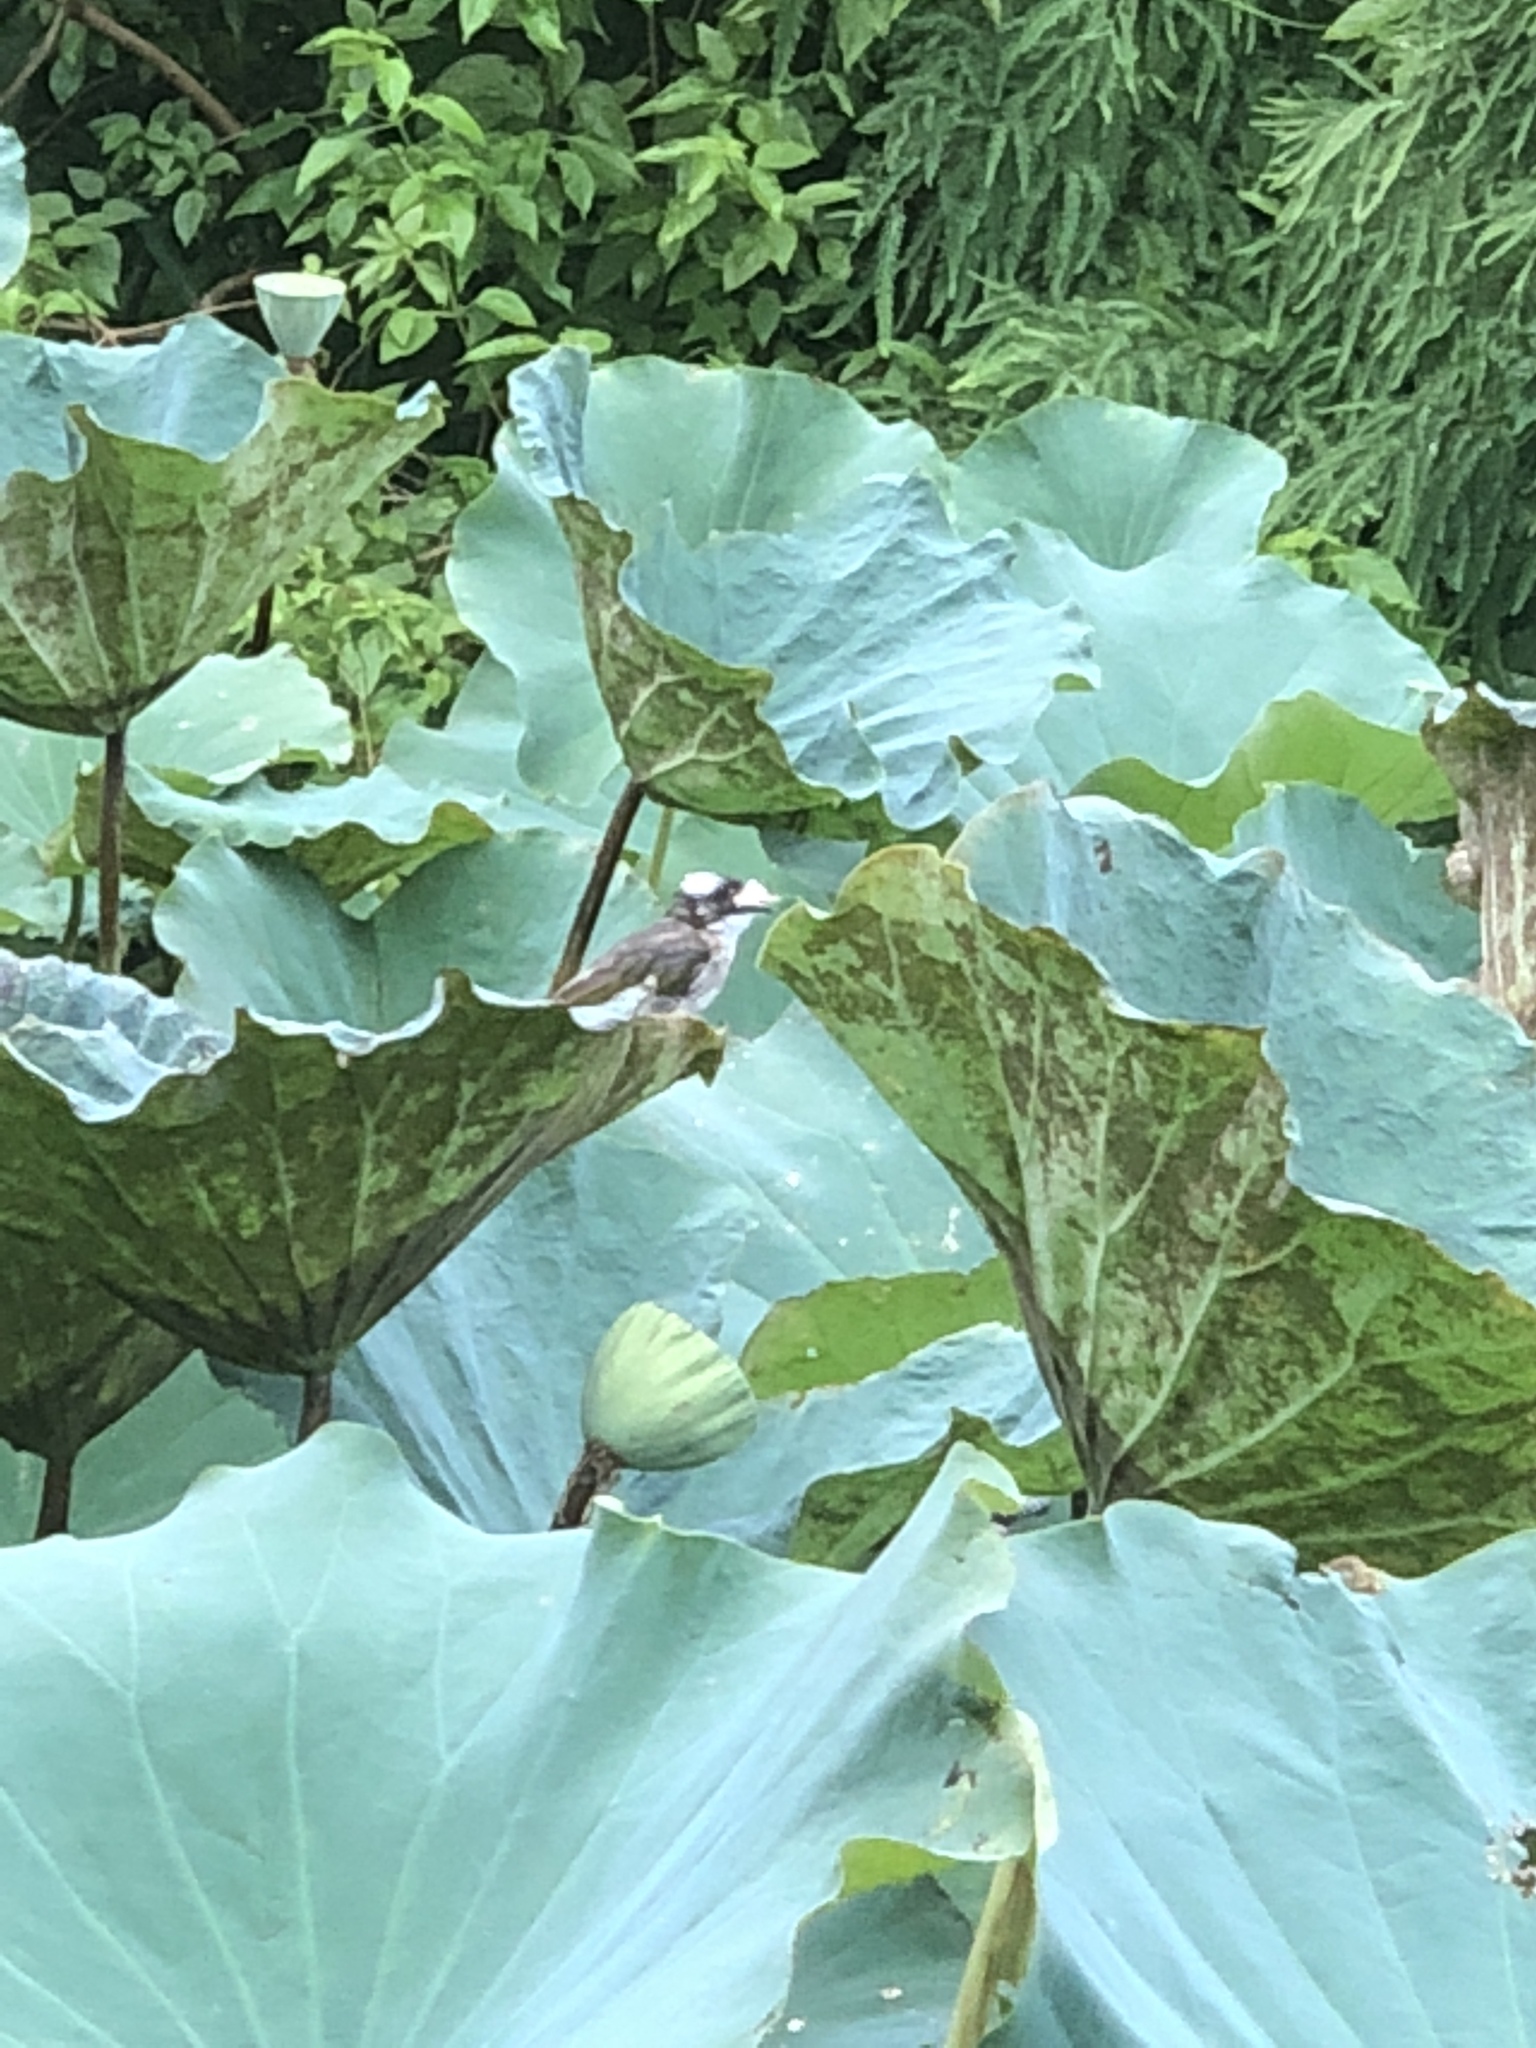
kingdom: Animalia
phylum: Chordata
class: Aves
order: Passeriformes
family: Pycnonotidae
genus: Pycnonotus
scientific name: Pycnonotus sinensis
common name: Light-vented bulbul
